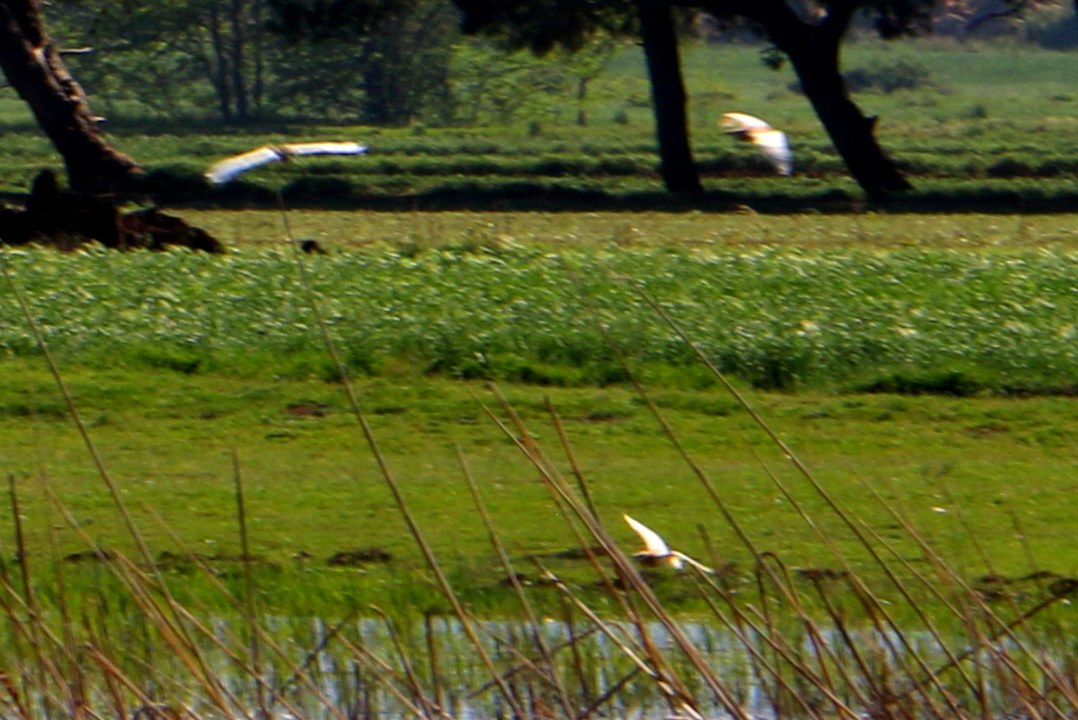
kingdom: Animalia
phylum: Chordata
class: Aves
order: Pelecaniformes
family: Ardeidae
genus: Ardeola
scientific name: Ardeola ralloides
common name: Squacco heron
